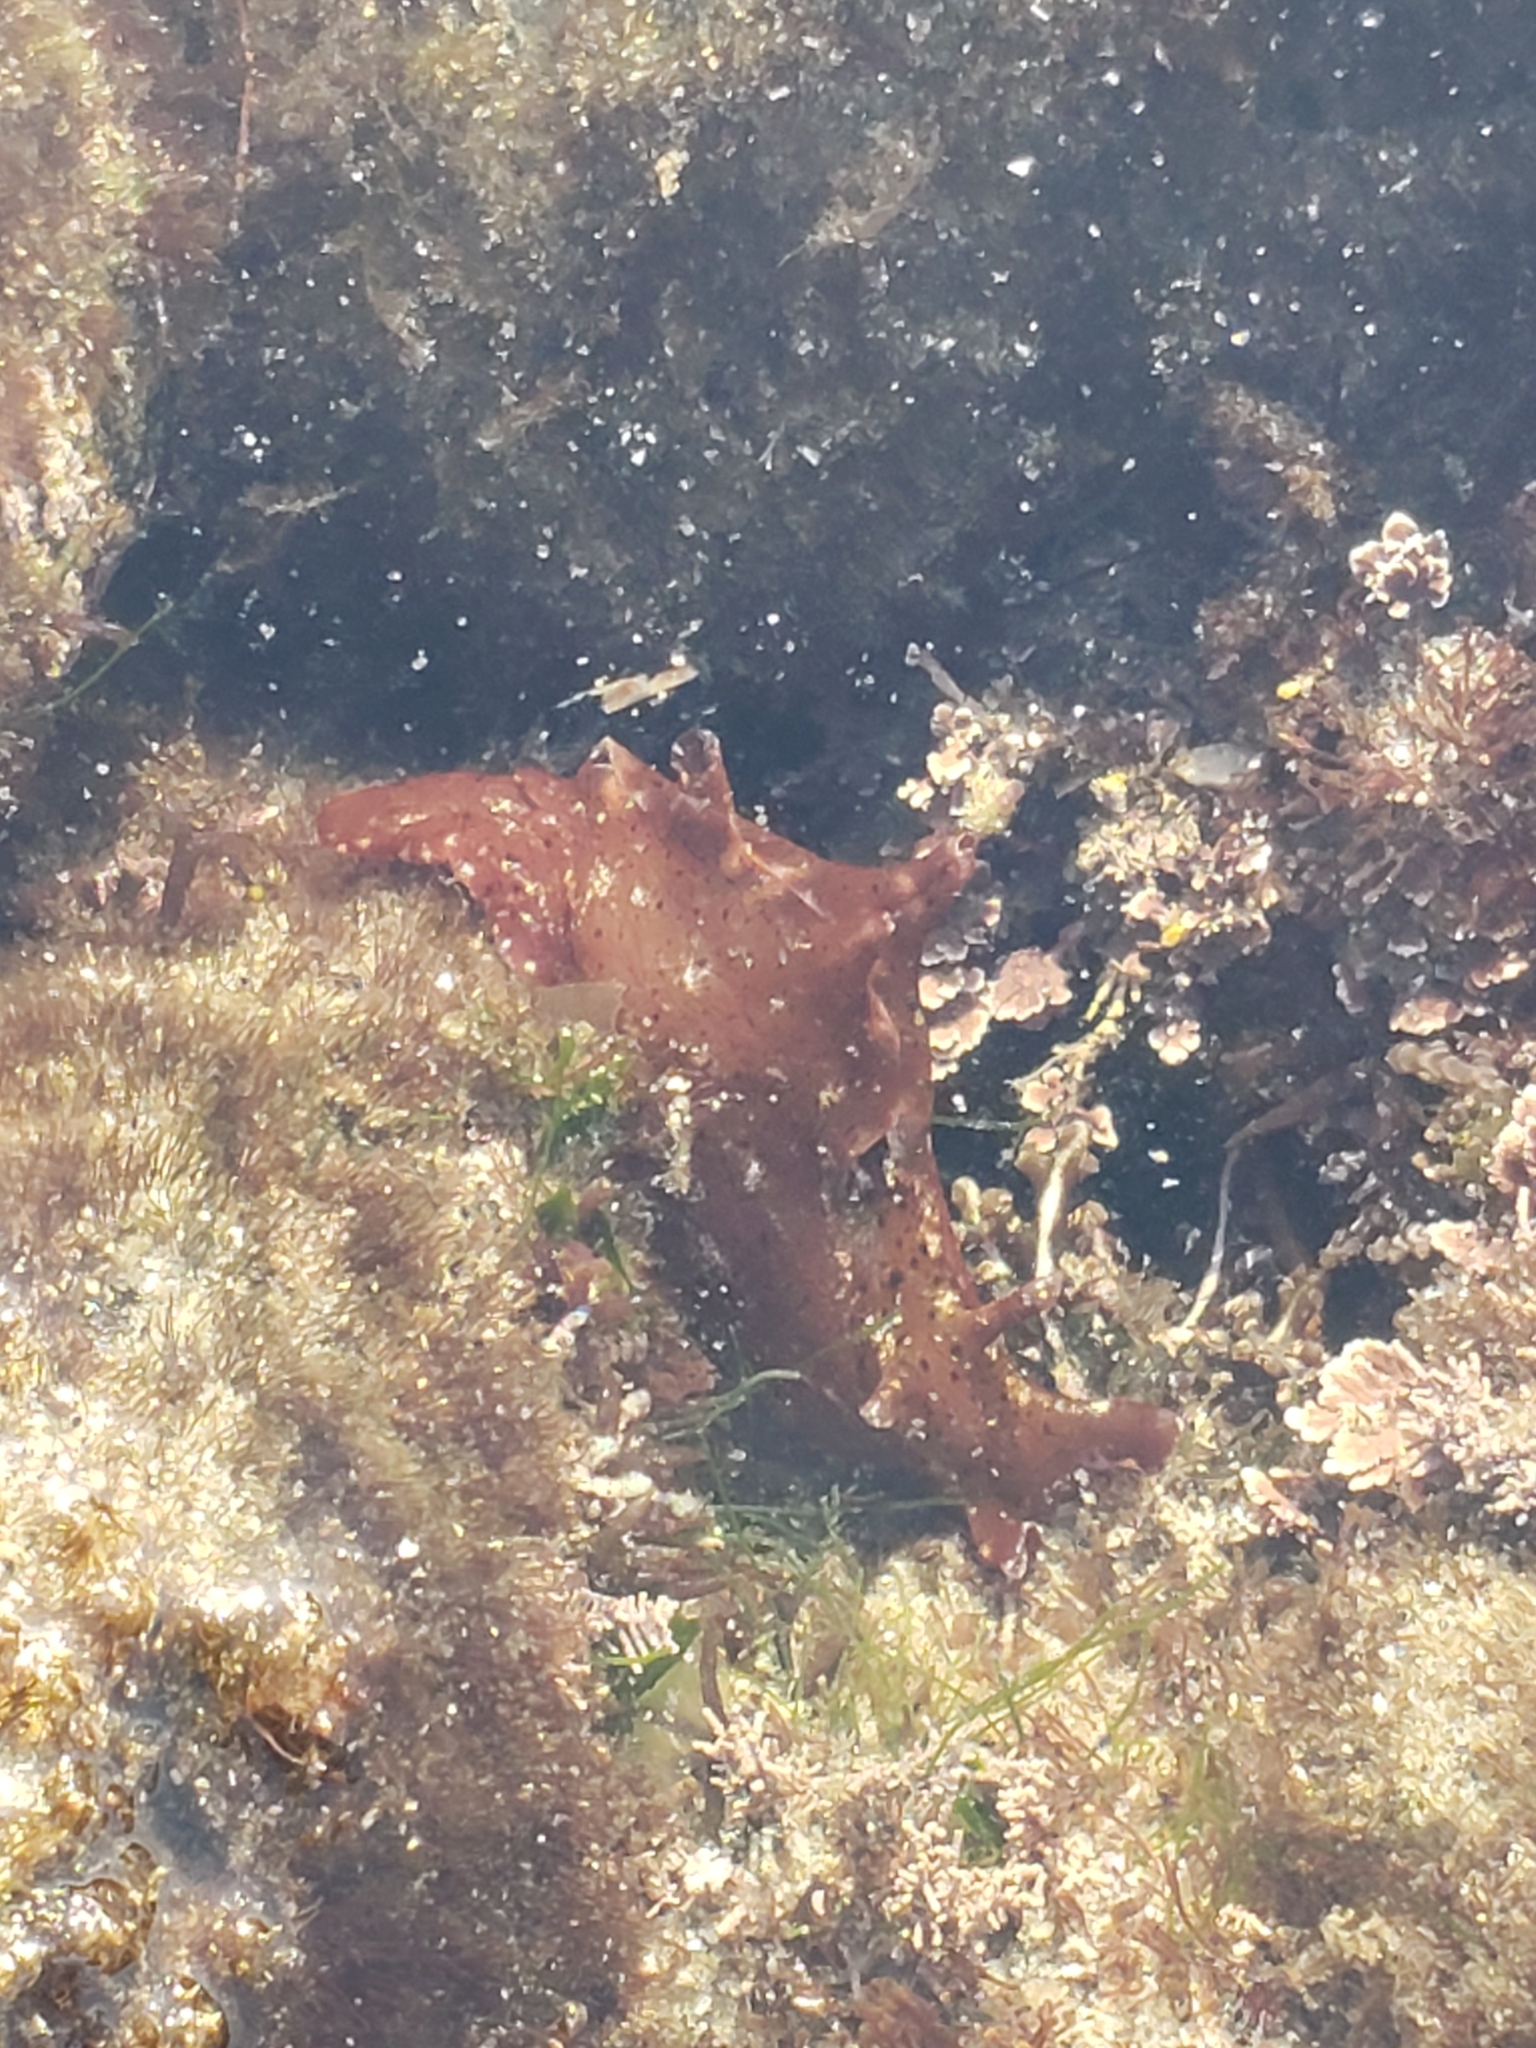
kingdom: Animalia
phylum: Mollusca
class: Gastropoda
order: Aplysiida
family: Aplysiidae
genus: Aplysia
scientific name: Aplysia californica
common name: California seahare
